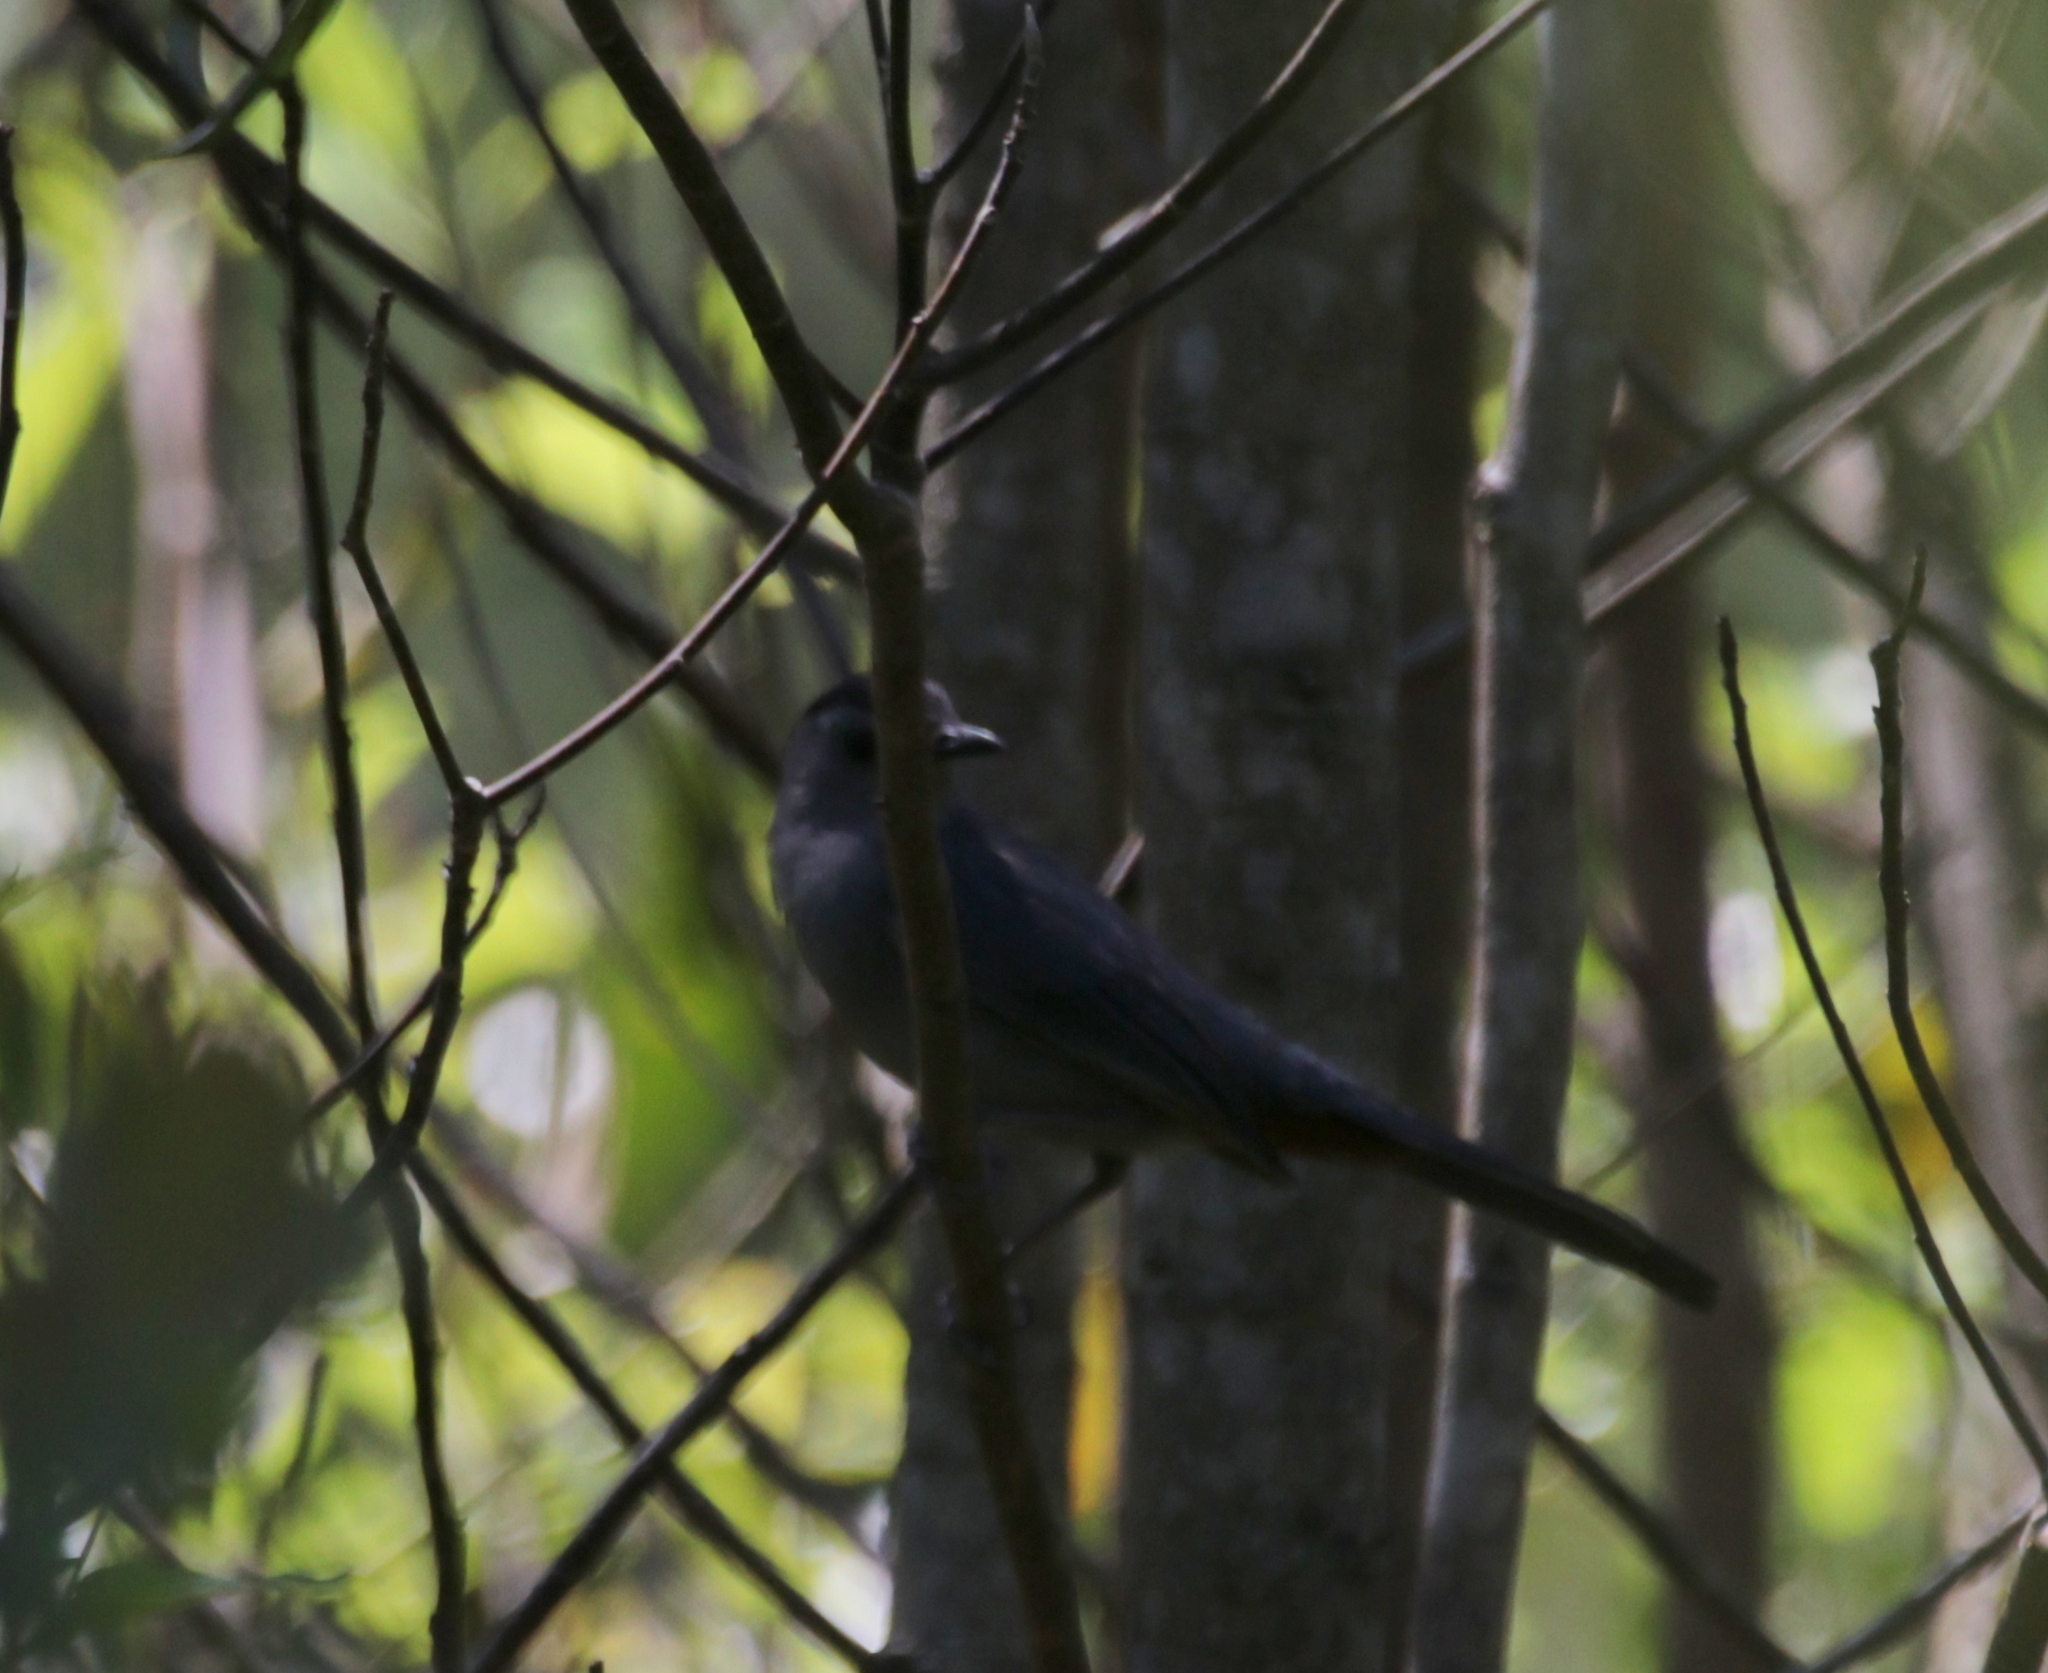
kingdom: Animalia
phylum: Chordata
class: Aves
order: Passeriformes
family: Mimidae
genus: Dumetella
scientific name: Dumetella carolinensis
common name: Gray catbird
